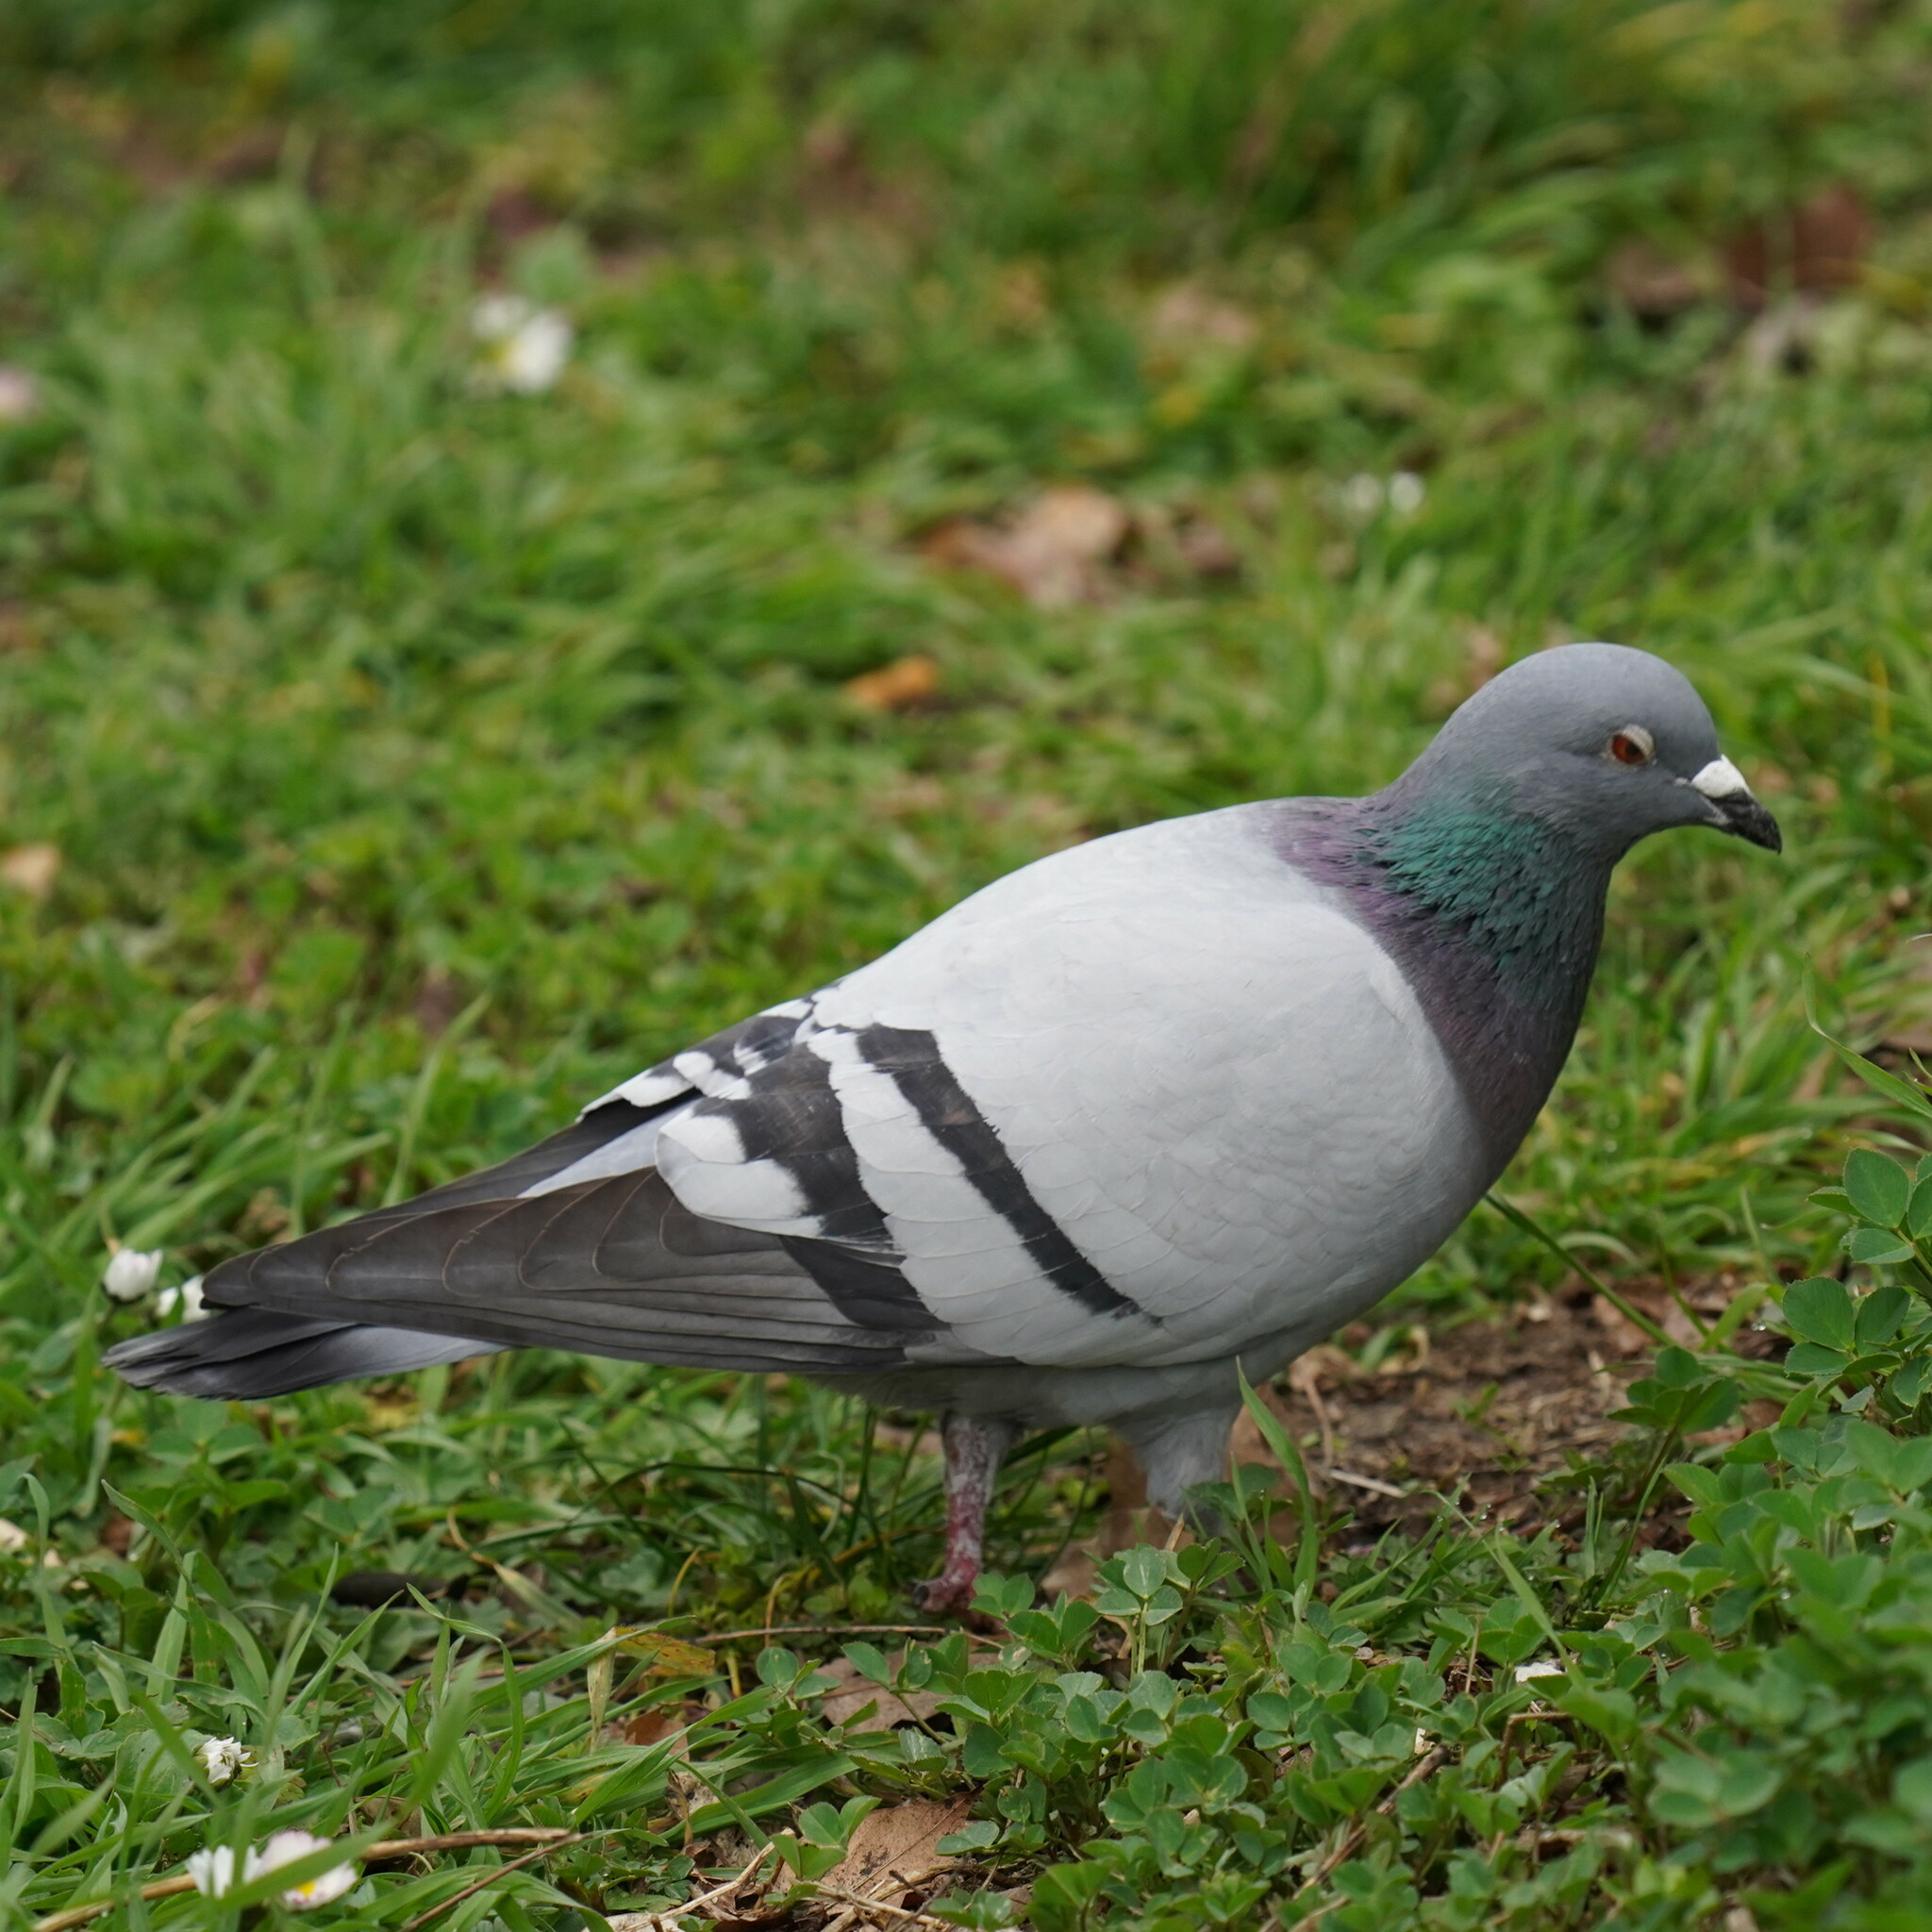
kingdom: Animalia
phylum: Chordata
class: Aves
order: Columbiformes
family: Columbidae
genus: Columba
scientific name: Columba livia
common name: Rock pigeon
